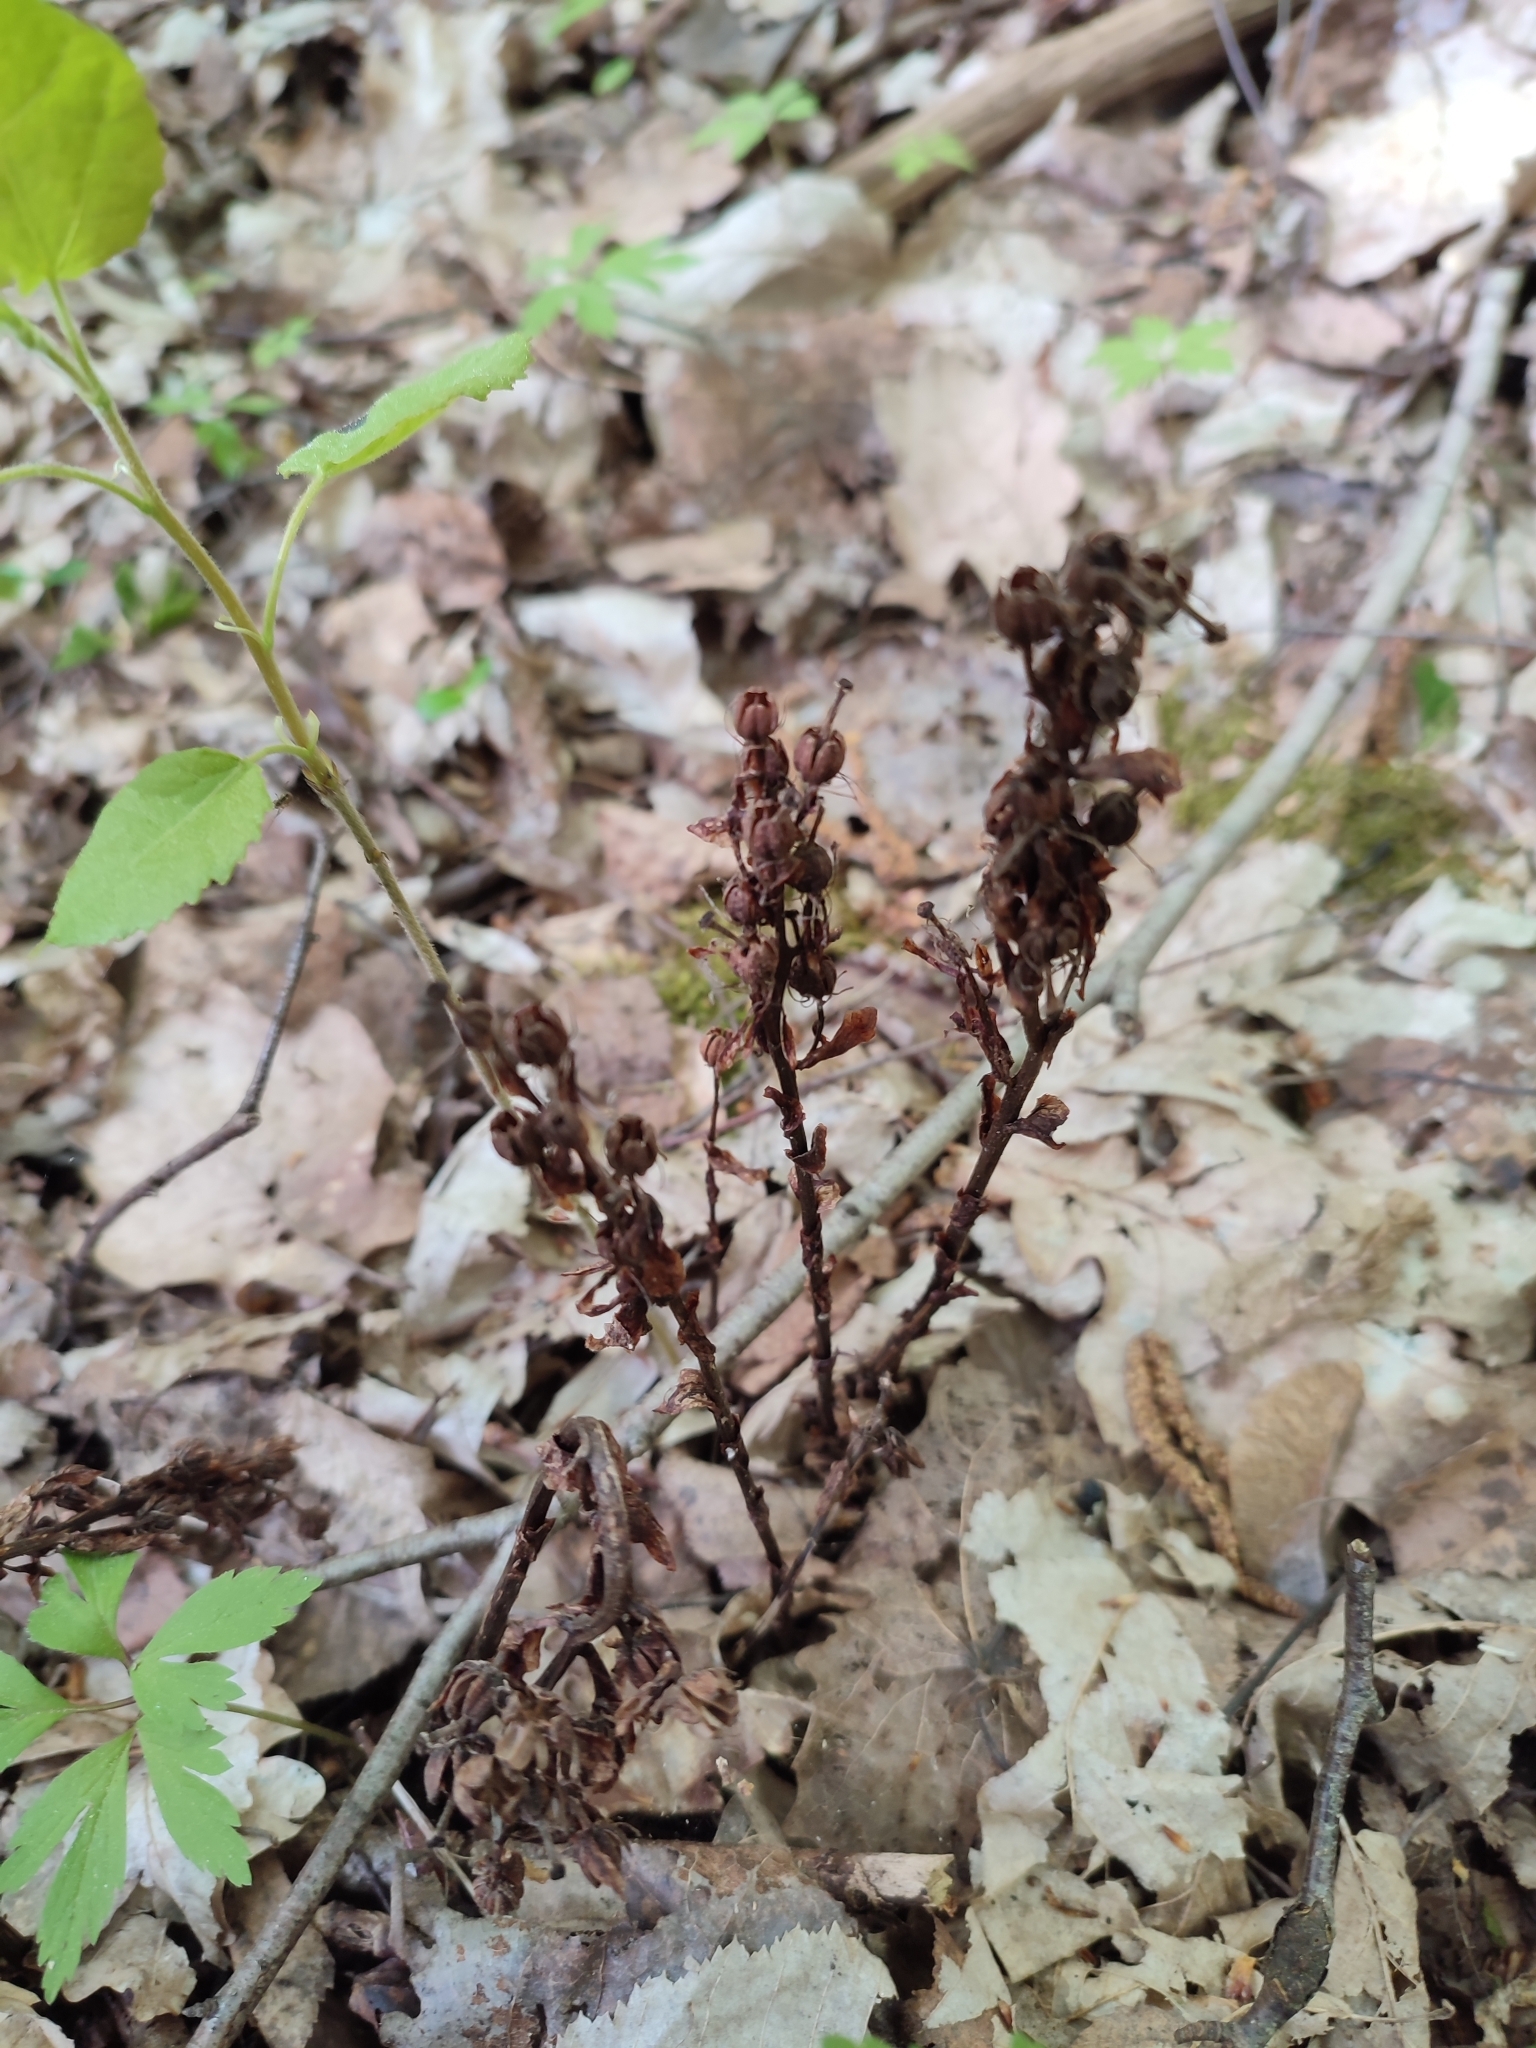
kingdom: Plantae
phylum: Tracheophyta
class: Magnoliopsida
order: Ericales
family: Ericaceae
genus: Hypopitys
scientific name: Hypopitys monotropa
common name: Yellow bird's-nest
